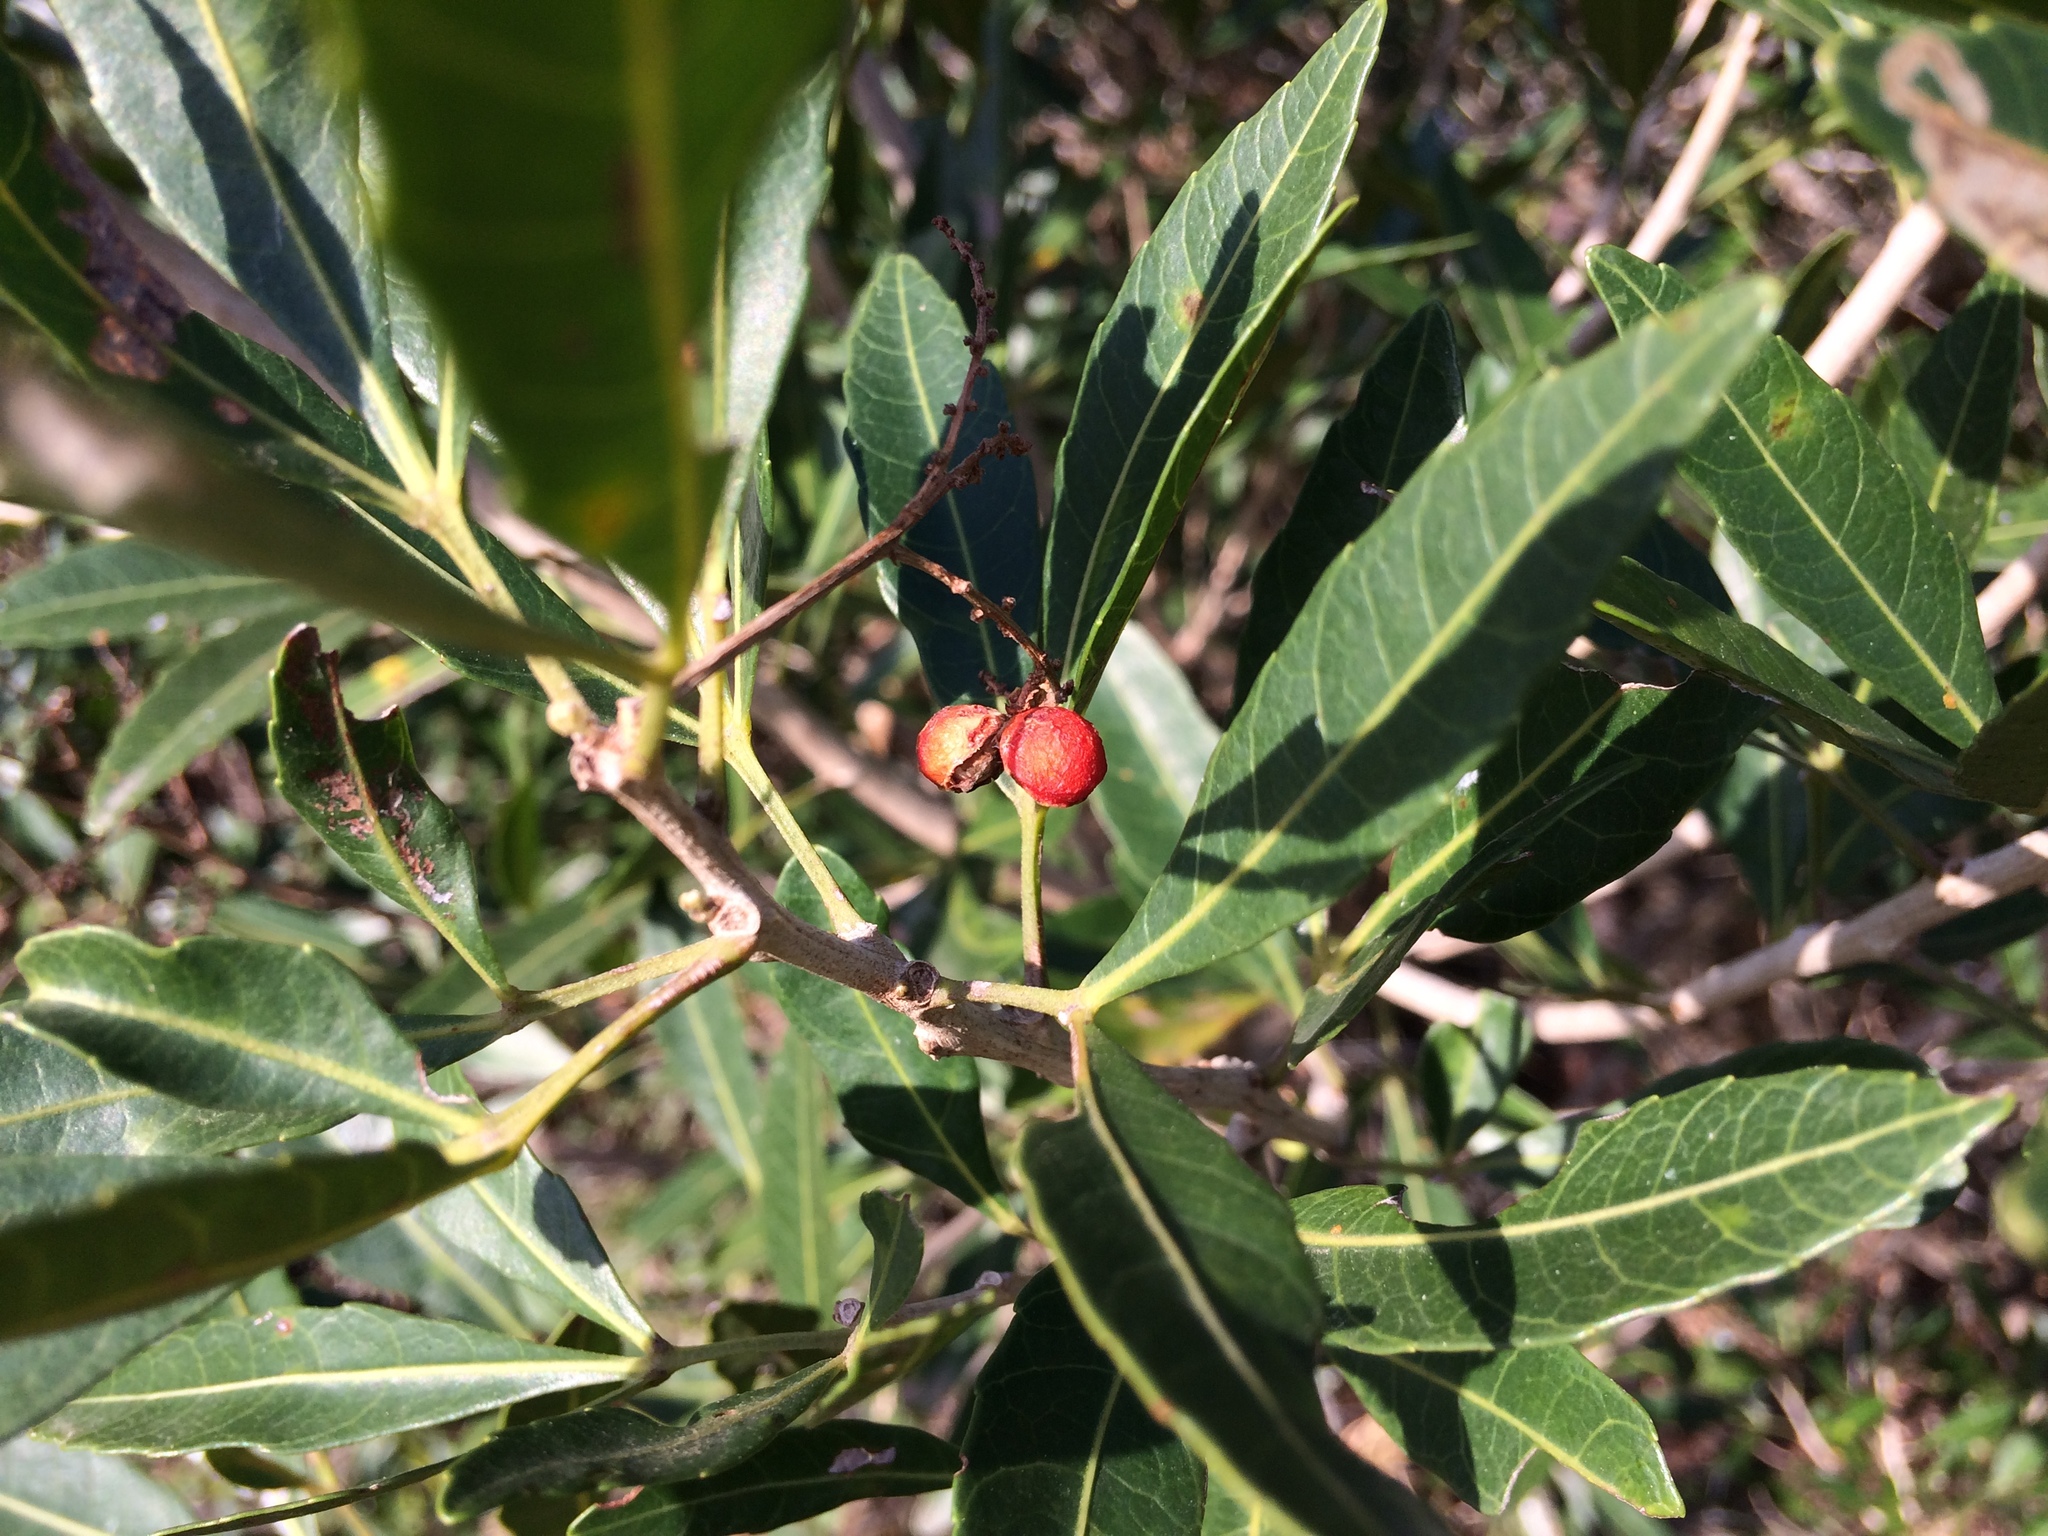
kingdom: Plantae
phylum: Tracheophyta
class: Magnoliopsida
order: Sapindales
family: Sapindaceae
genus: Allophylus
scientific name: Allophylus natalensis
